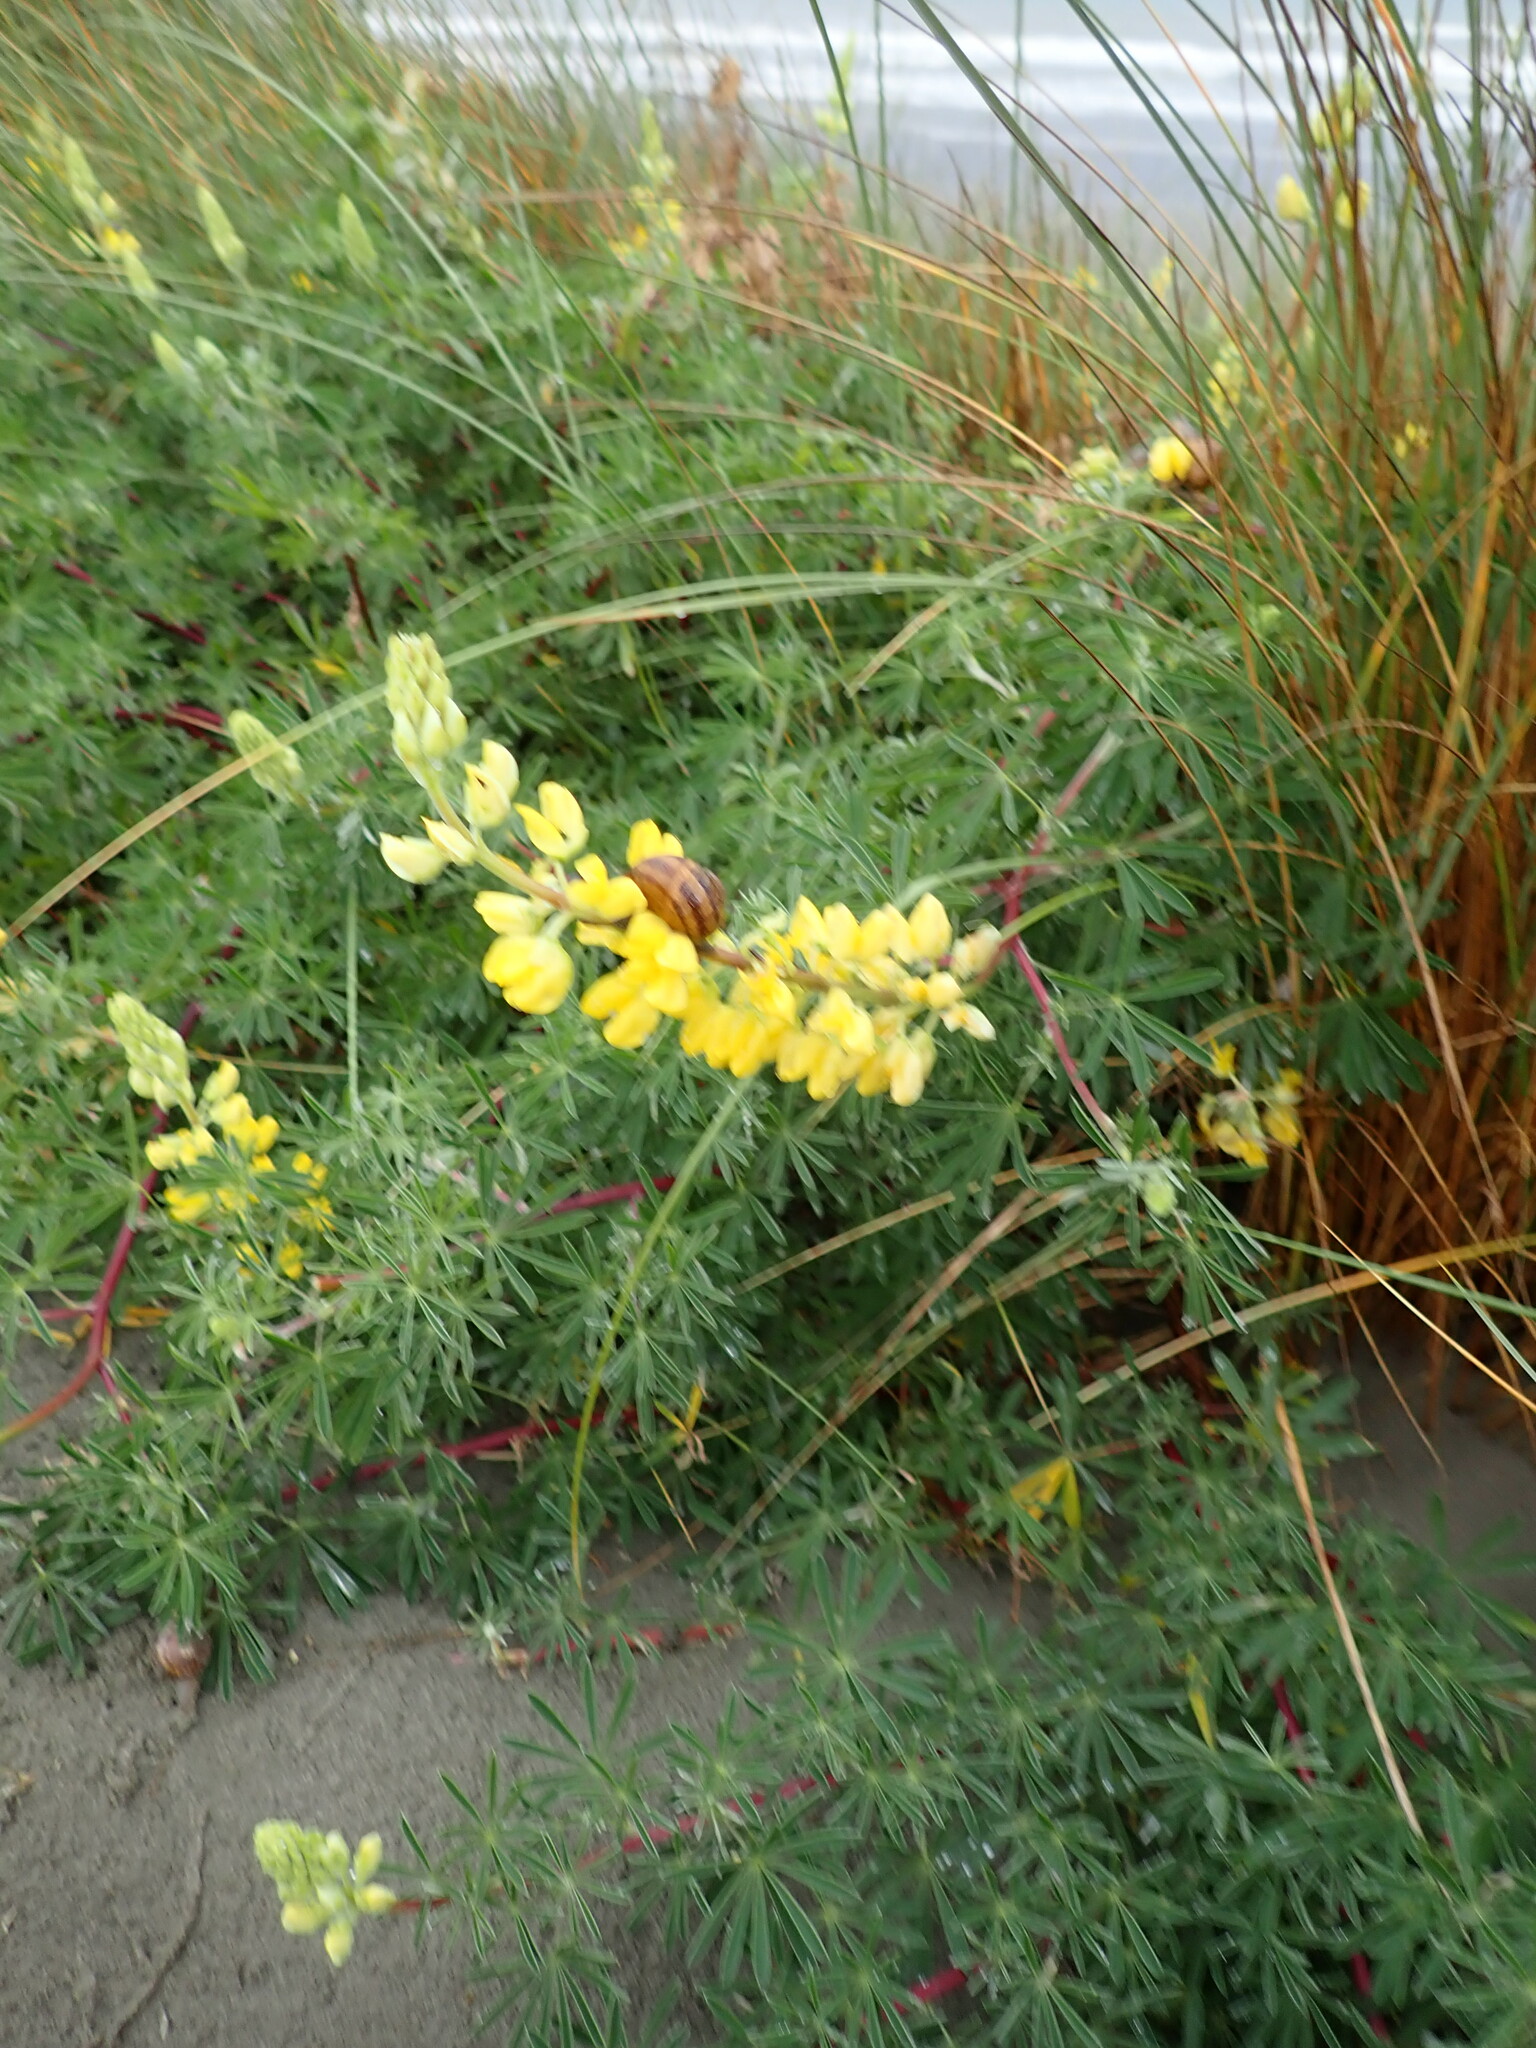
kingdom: Plantae
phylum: Tracheophyta
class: Magnoliopsida
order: Fabales
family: Fabaceae
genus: Lupinus
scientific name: Lupinus arboreus
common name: Yellow bush lupine
